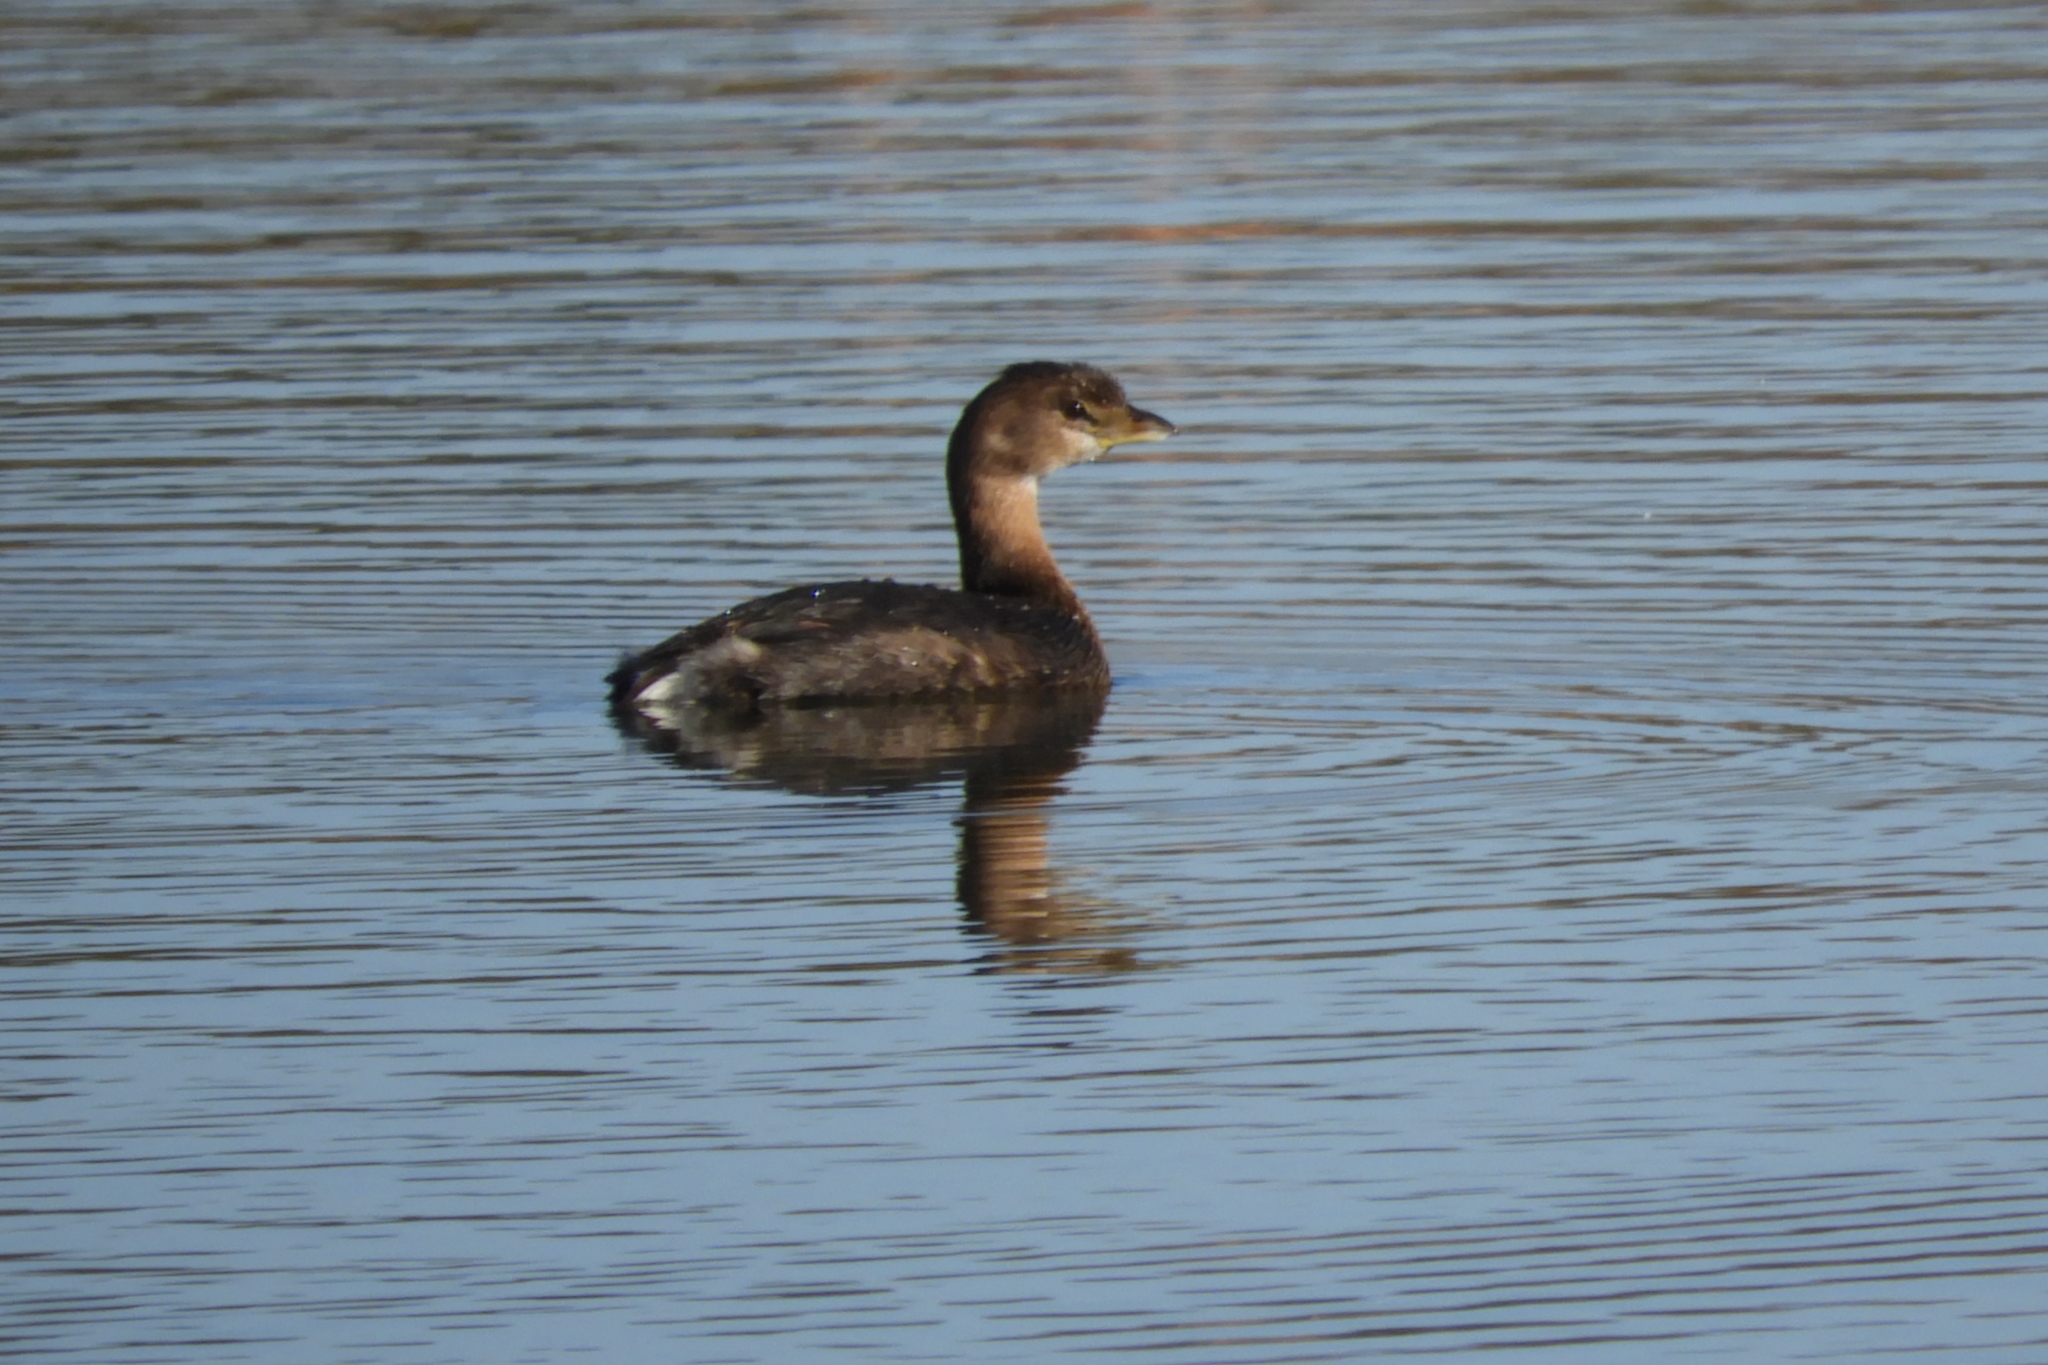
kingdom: Animalia
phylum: Chordata
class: Aves
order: Podicipediformes
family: Podicipedidae
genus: Podilymbus
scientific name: Podilymbus podiceps
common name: Pied-billed grebe
